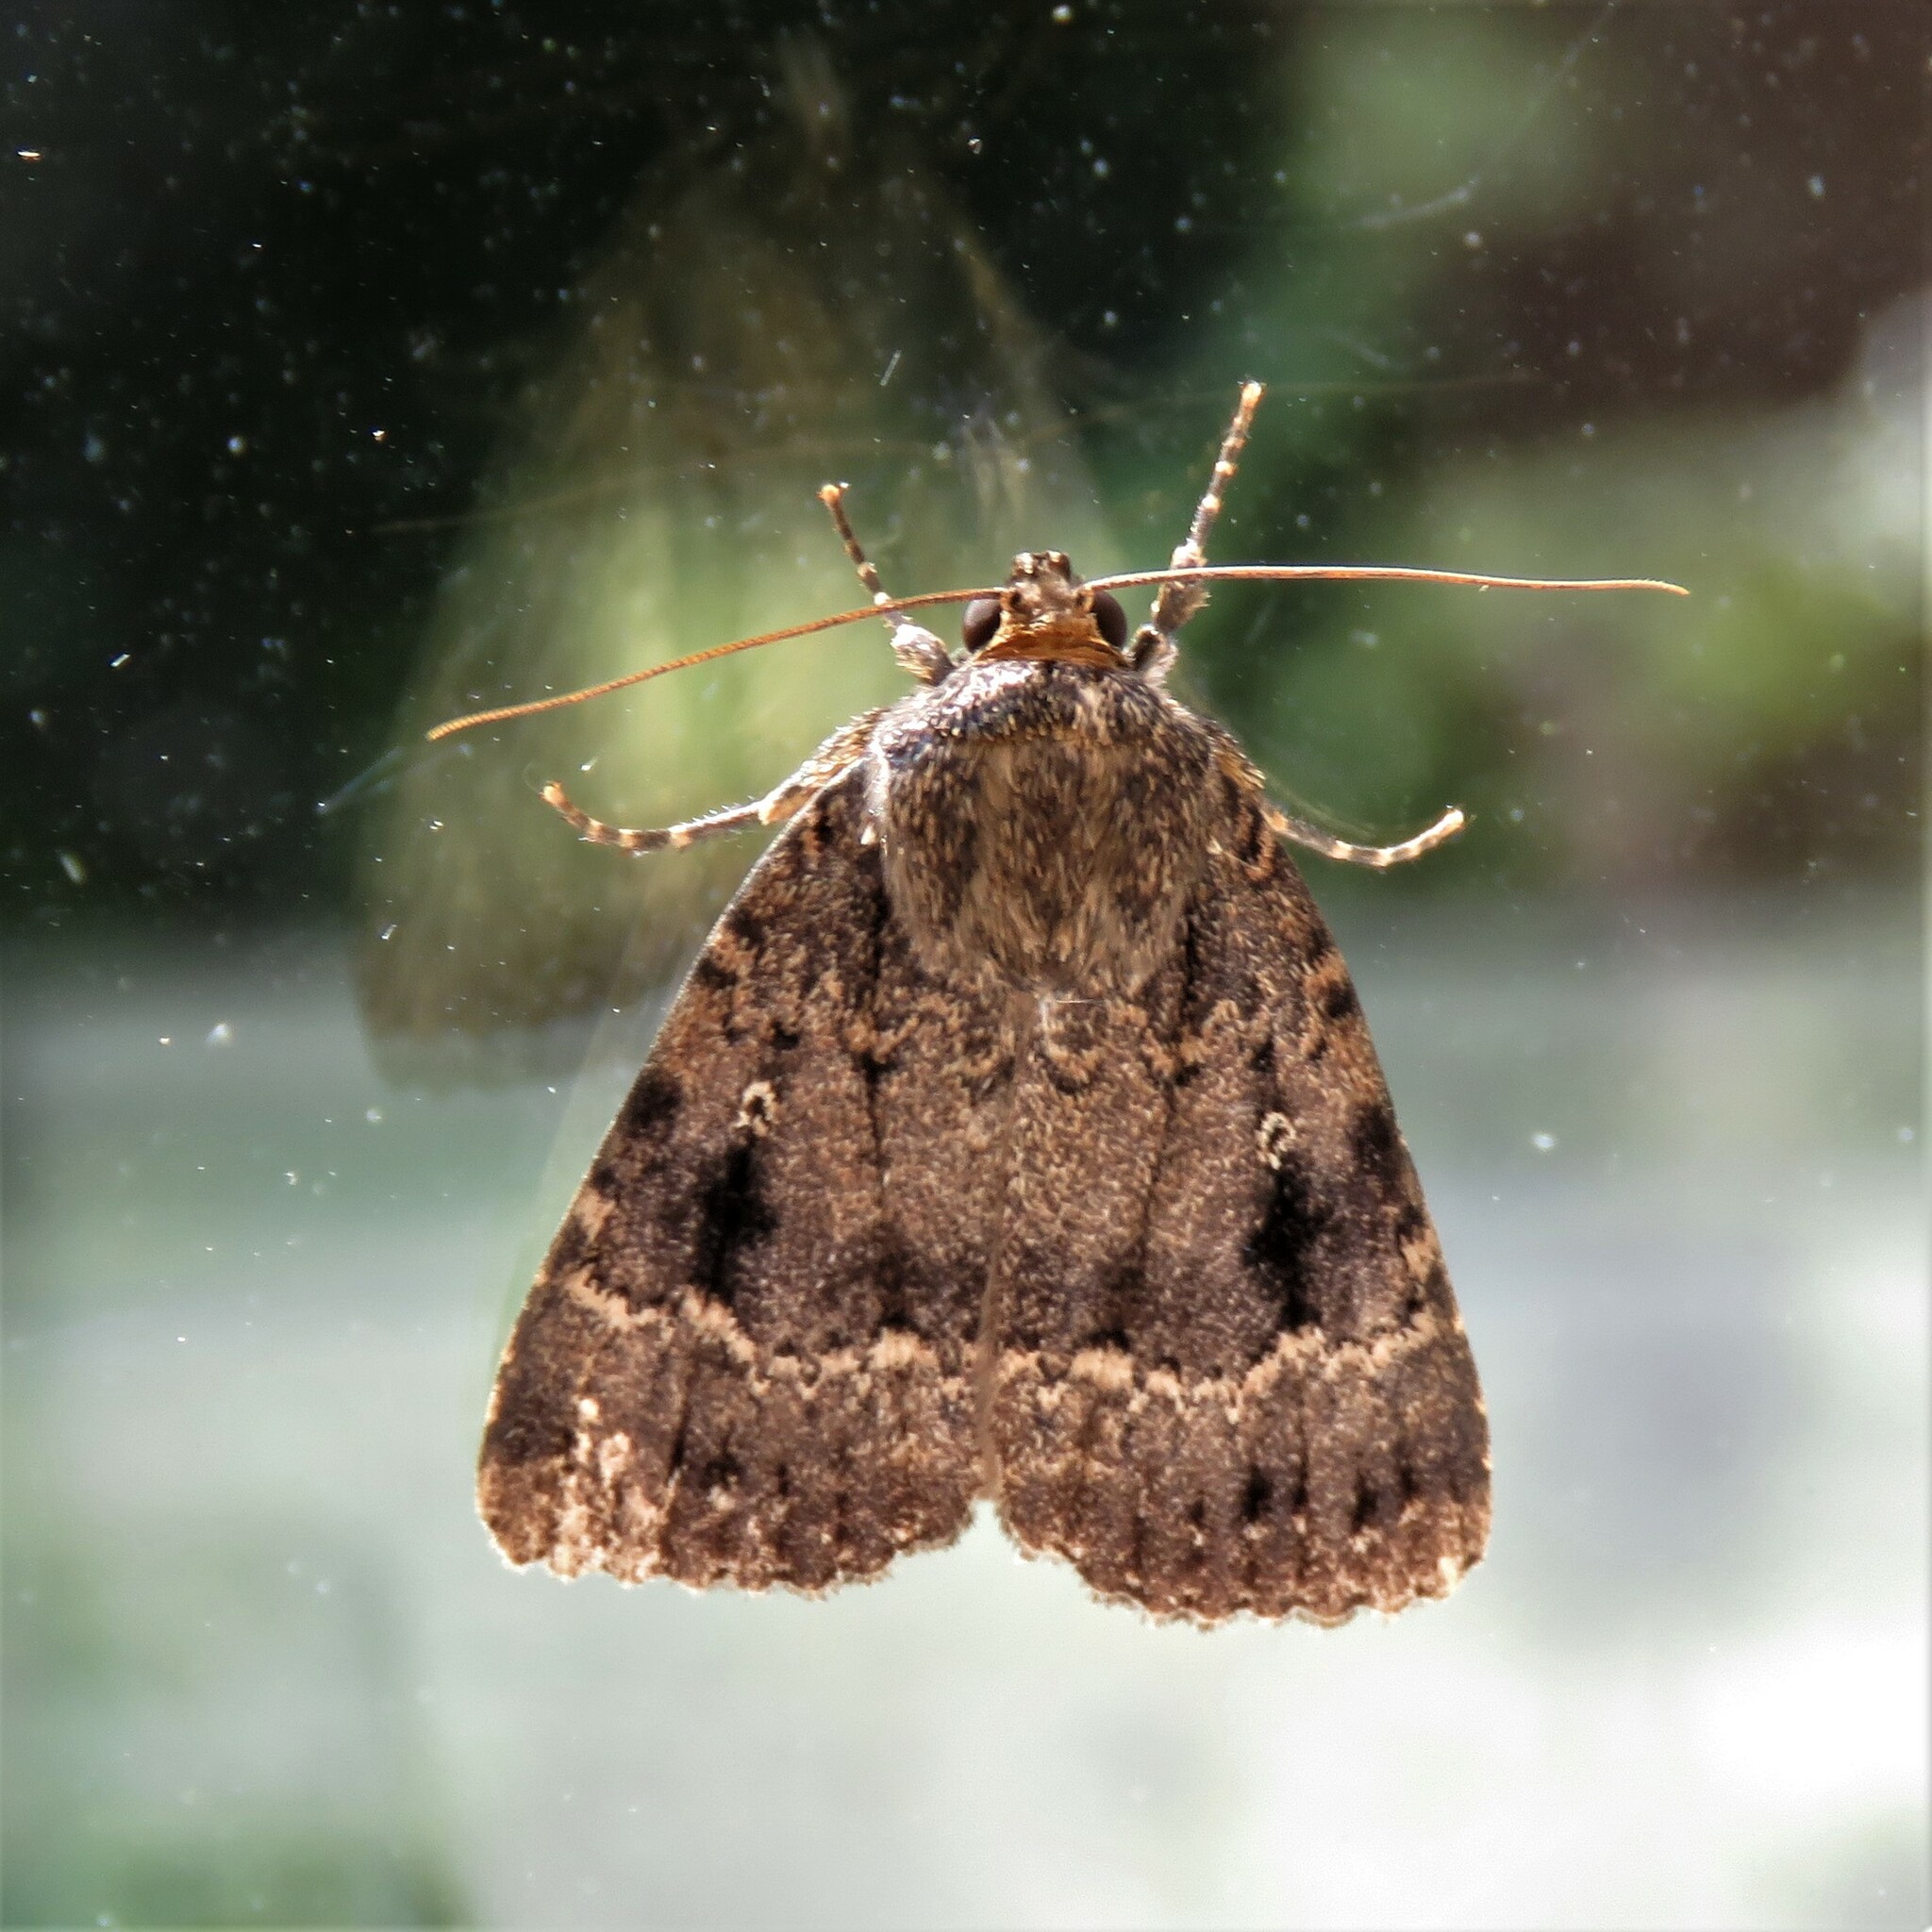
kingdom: Animalia
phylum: Arthropoda
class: Insecta
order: Lepidoptera
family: Noctuidae
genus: Amphipyra
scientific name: Amphipyra pyramidea
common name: Copper underwing
